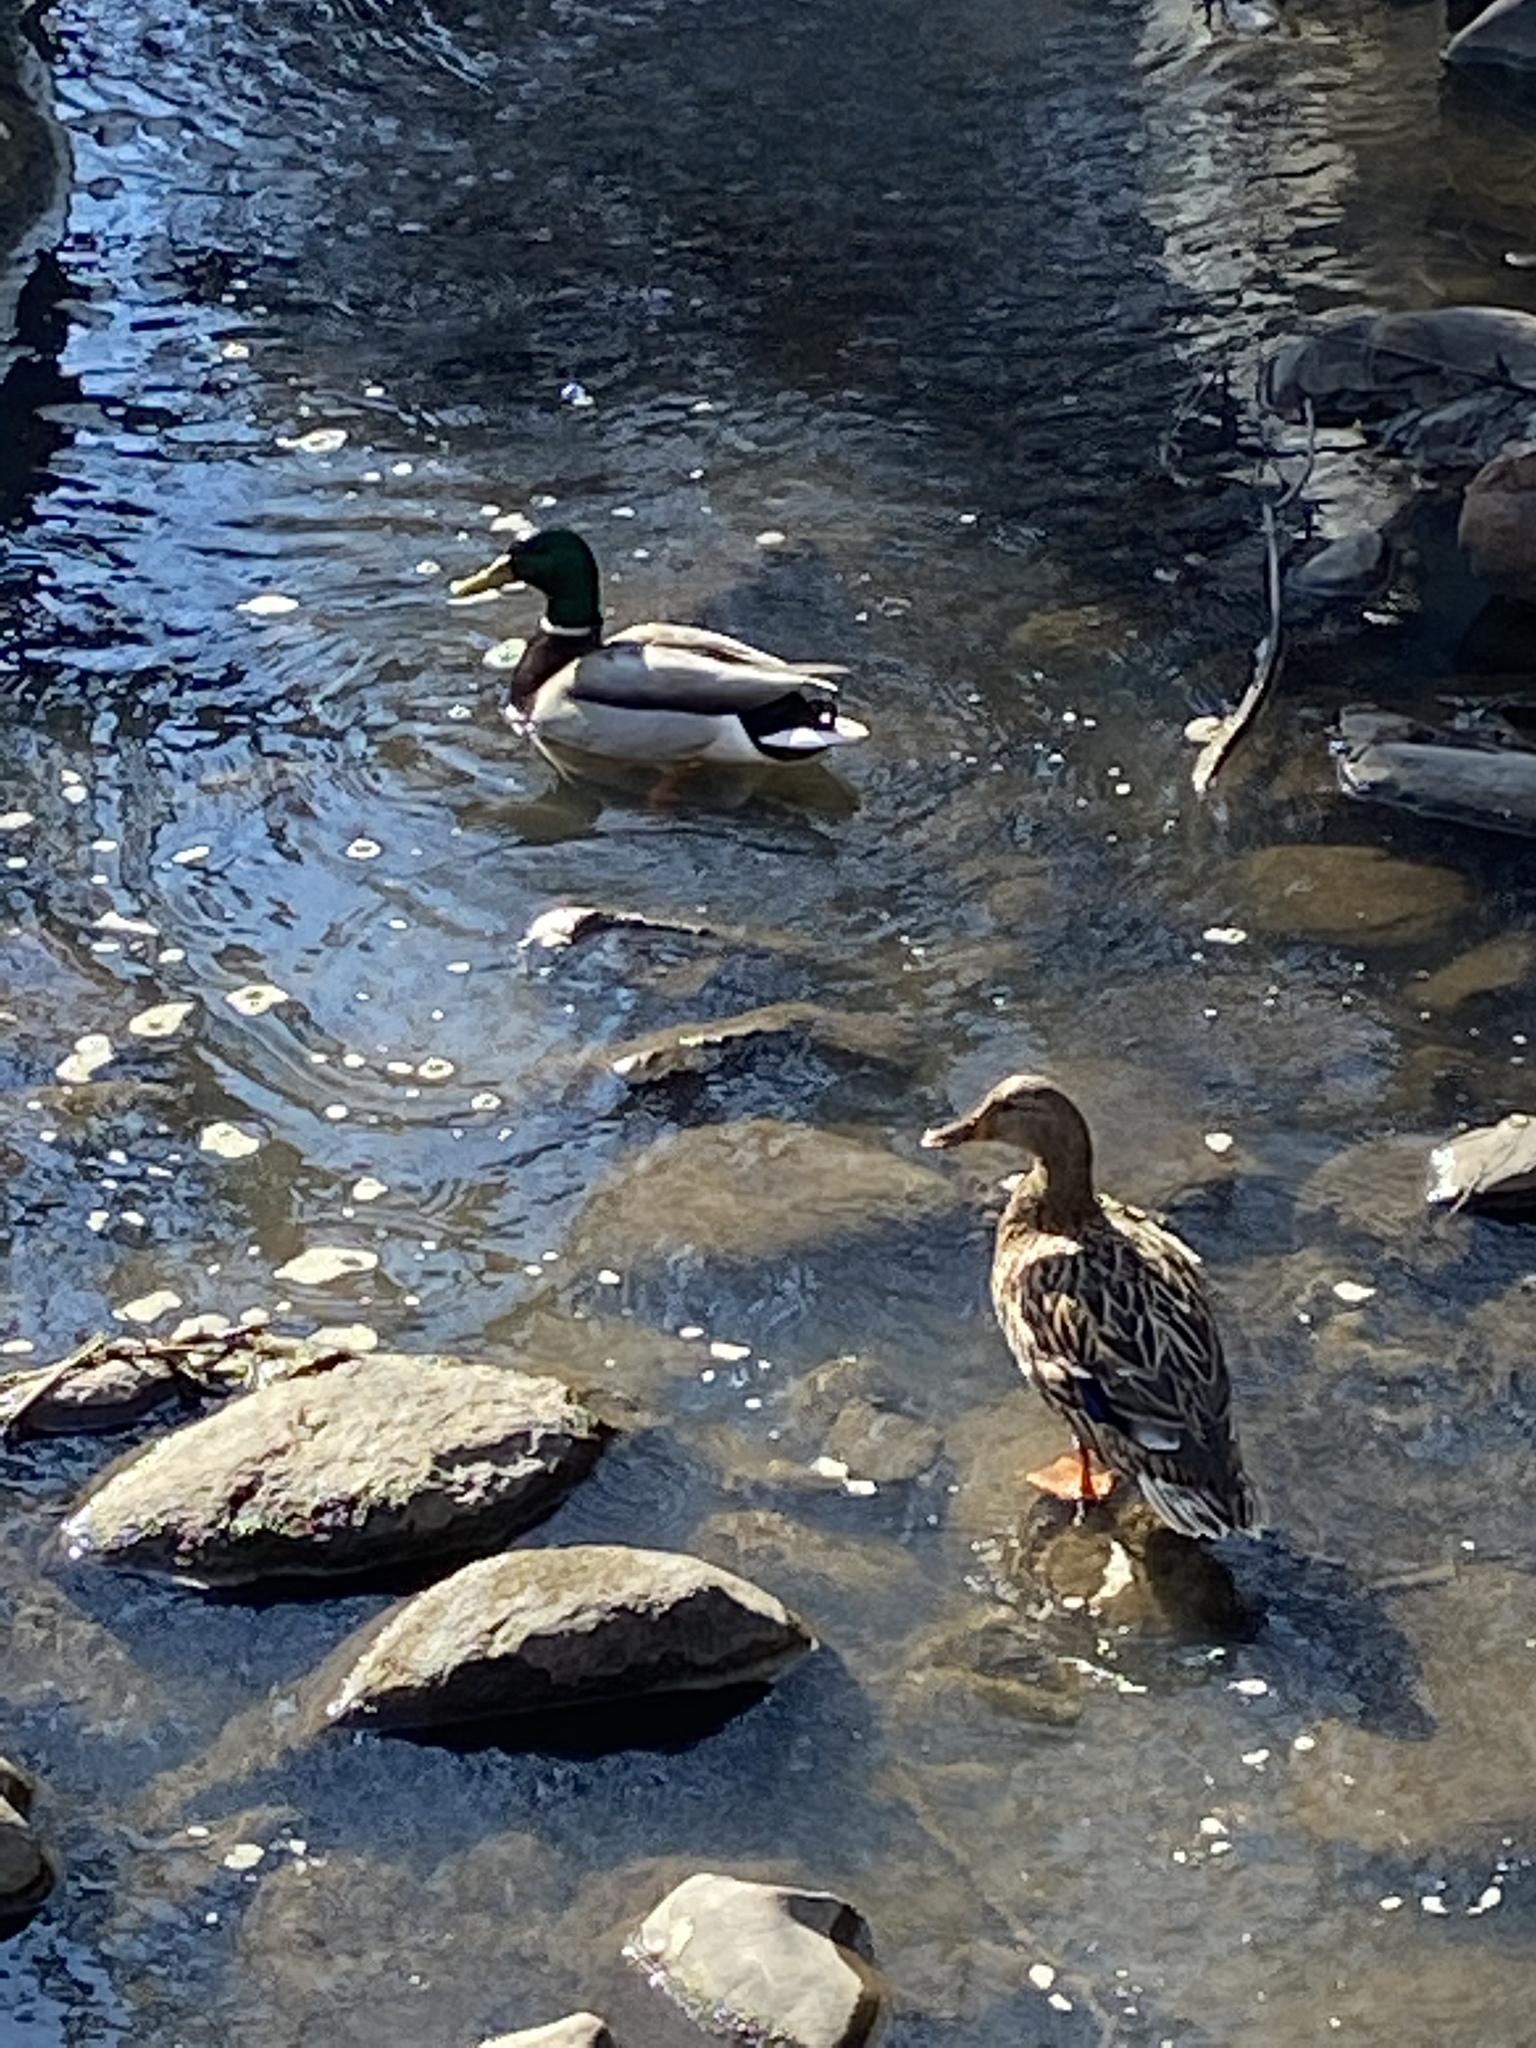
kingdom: Animalia
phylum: Chordata
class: Aves
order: Anseriformes
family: Anatidae
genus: Anas
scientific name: Anas platyrhynchos
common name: Mallard
